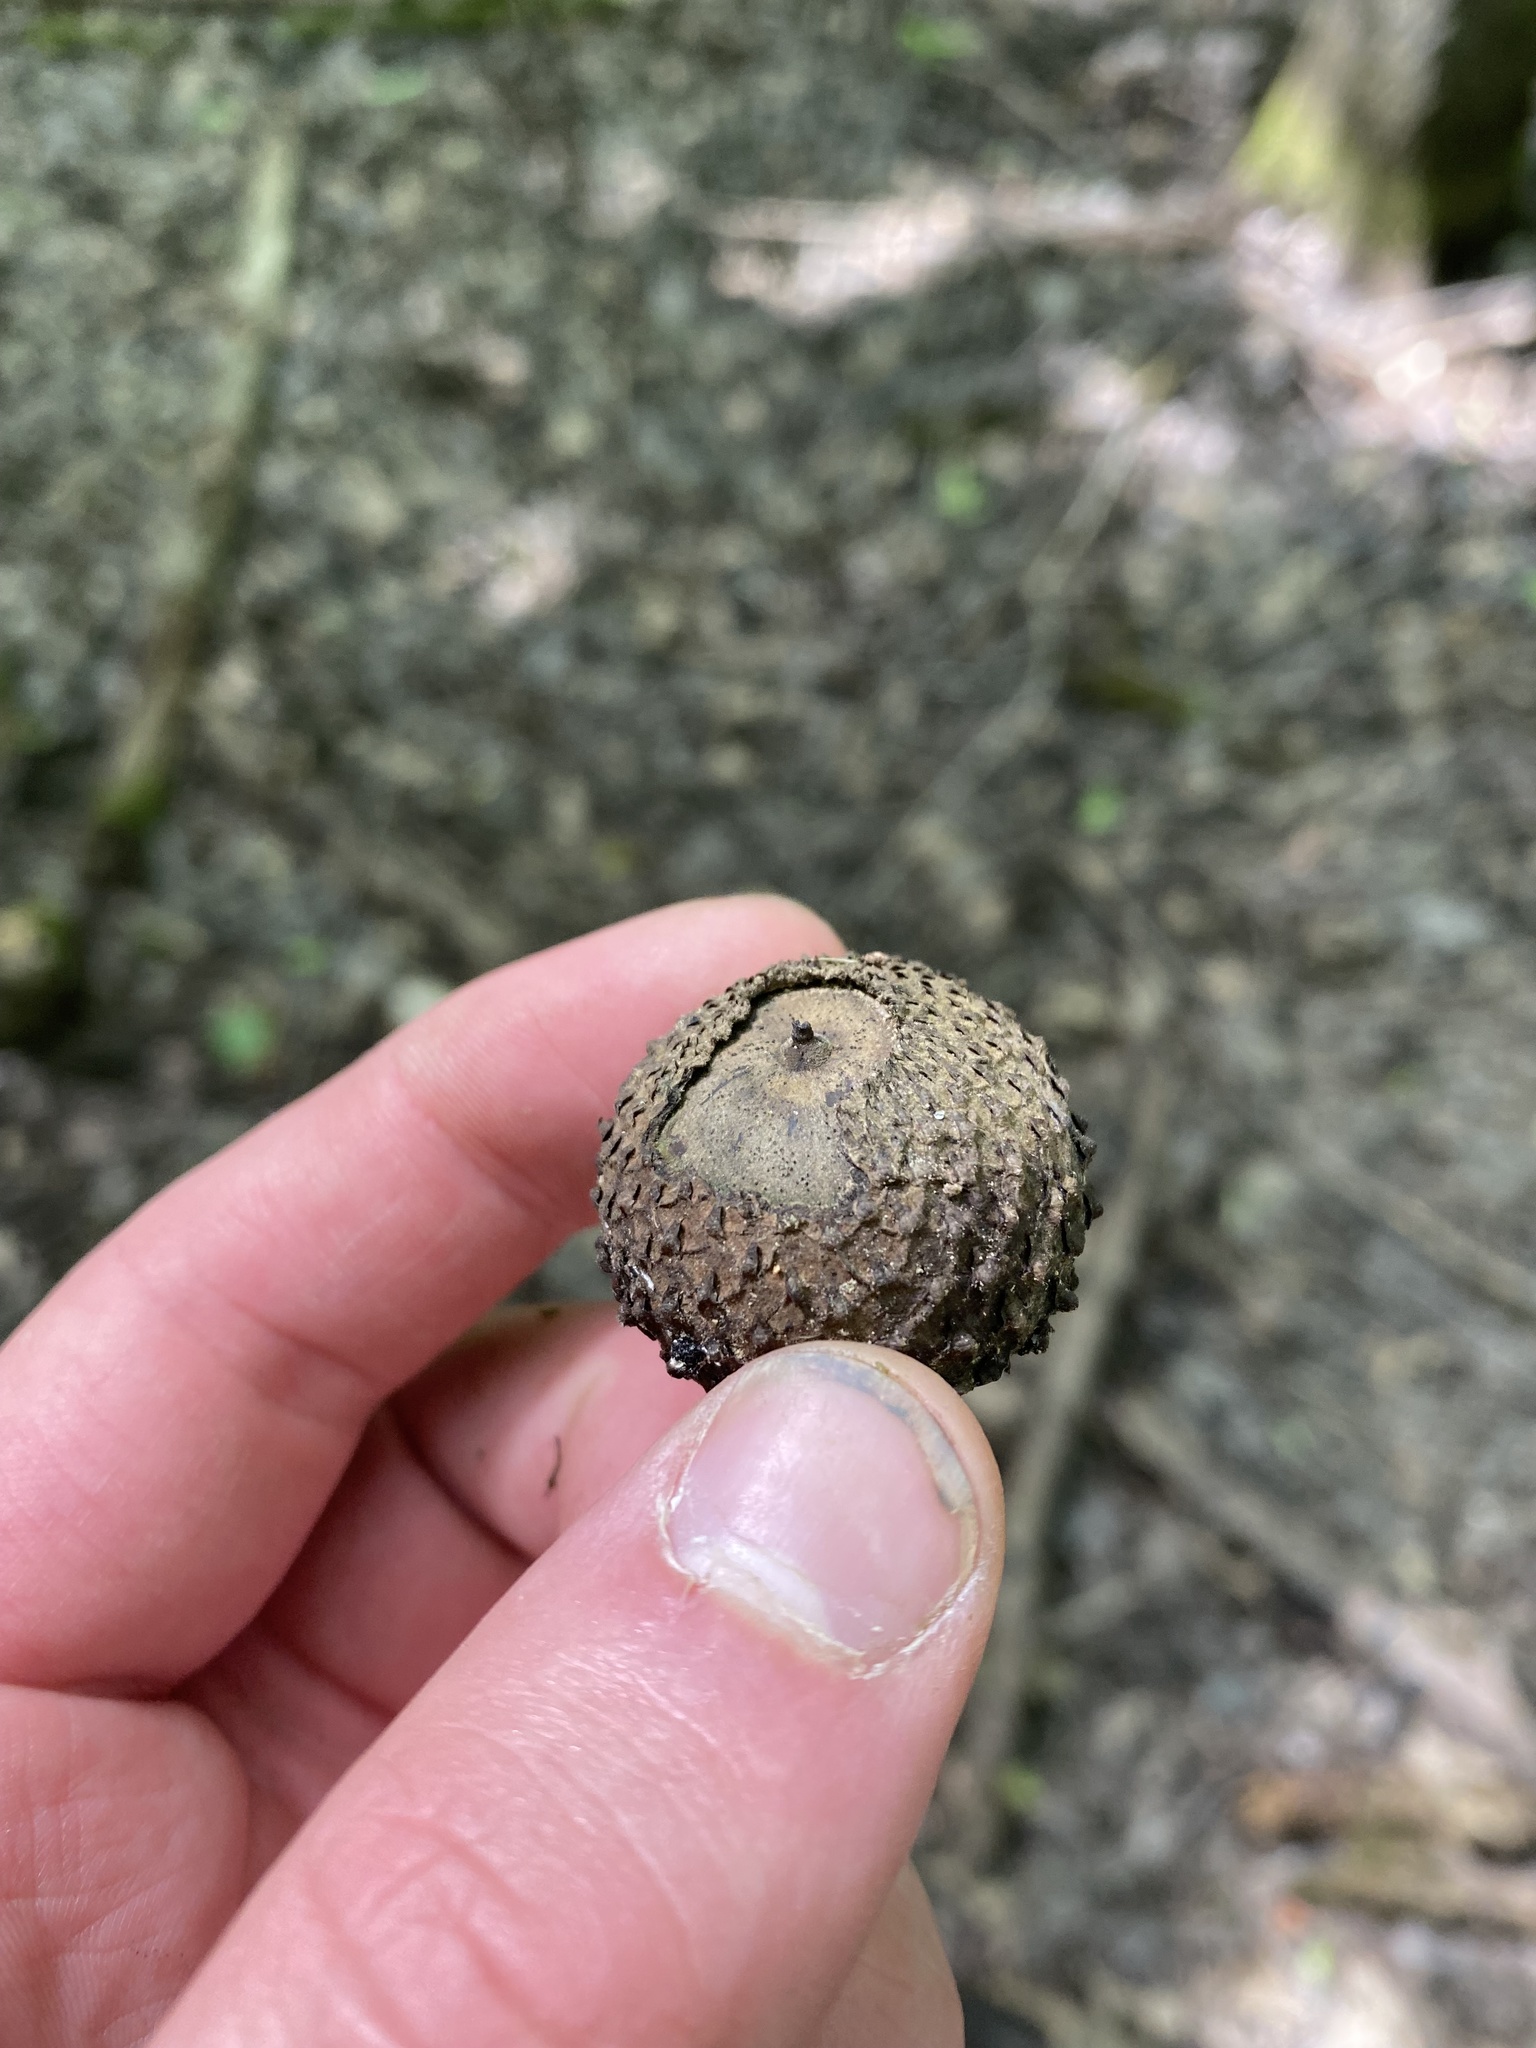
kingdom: Plantae
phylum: Tracheophyta
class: Magnoliopsida
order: Fagales
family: Fagaceae
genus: Quercus
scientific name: Quercus lyrata
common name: Overcup oak
